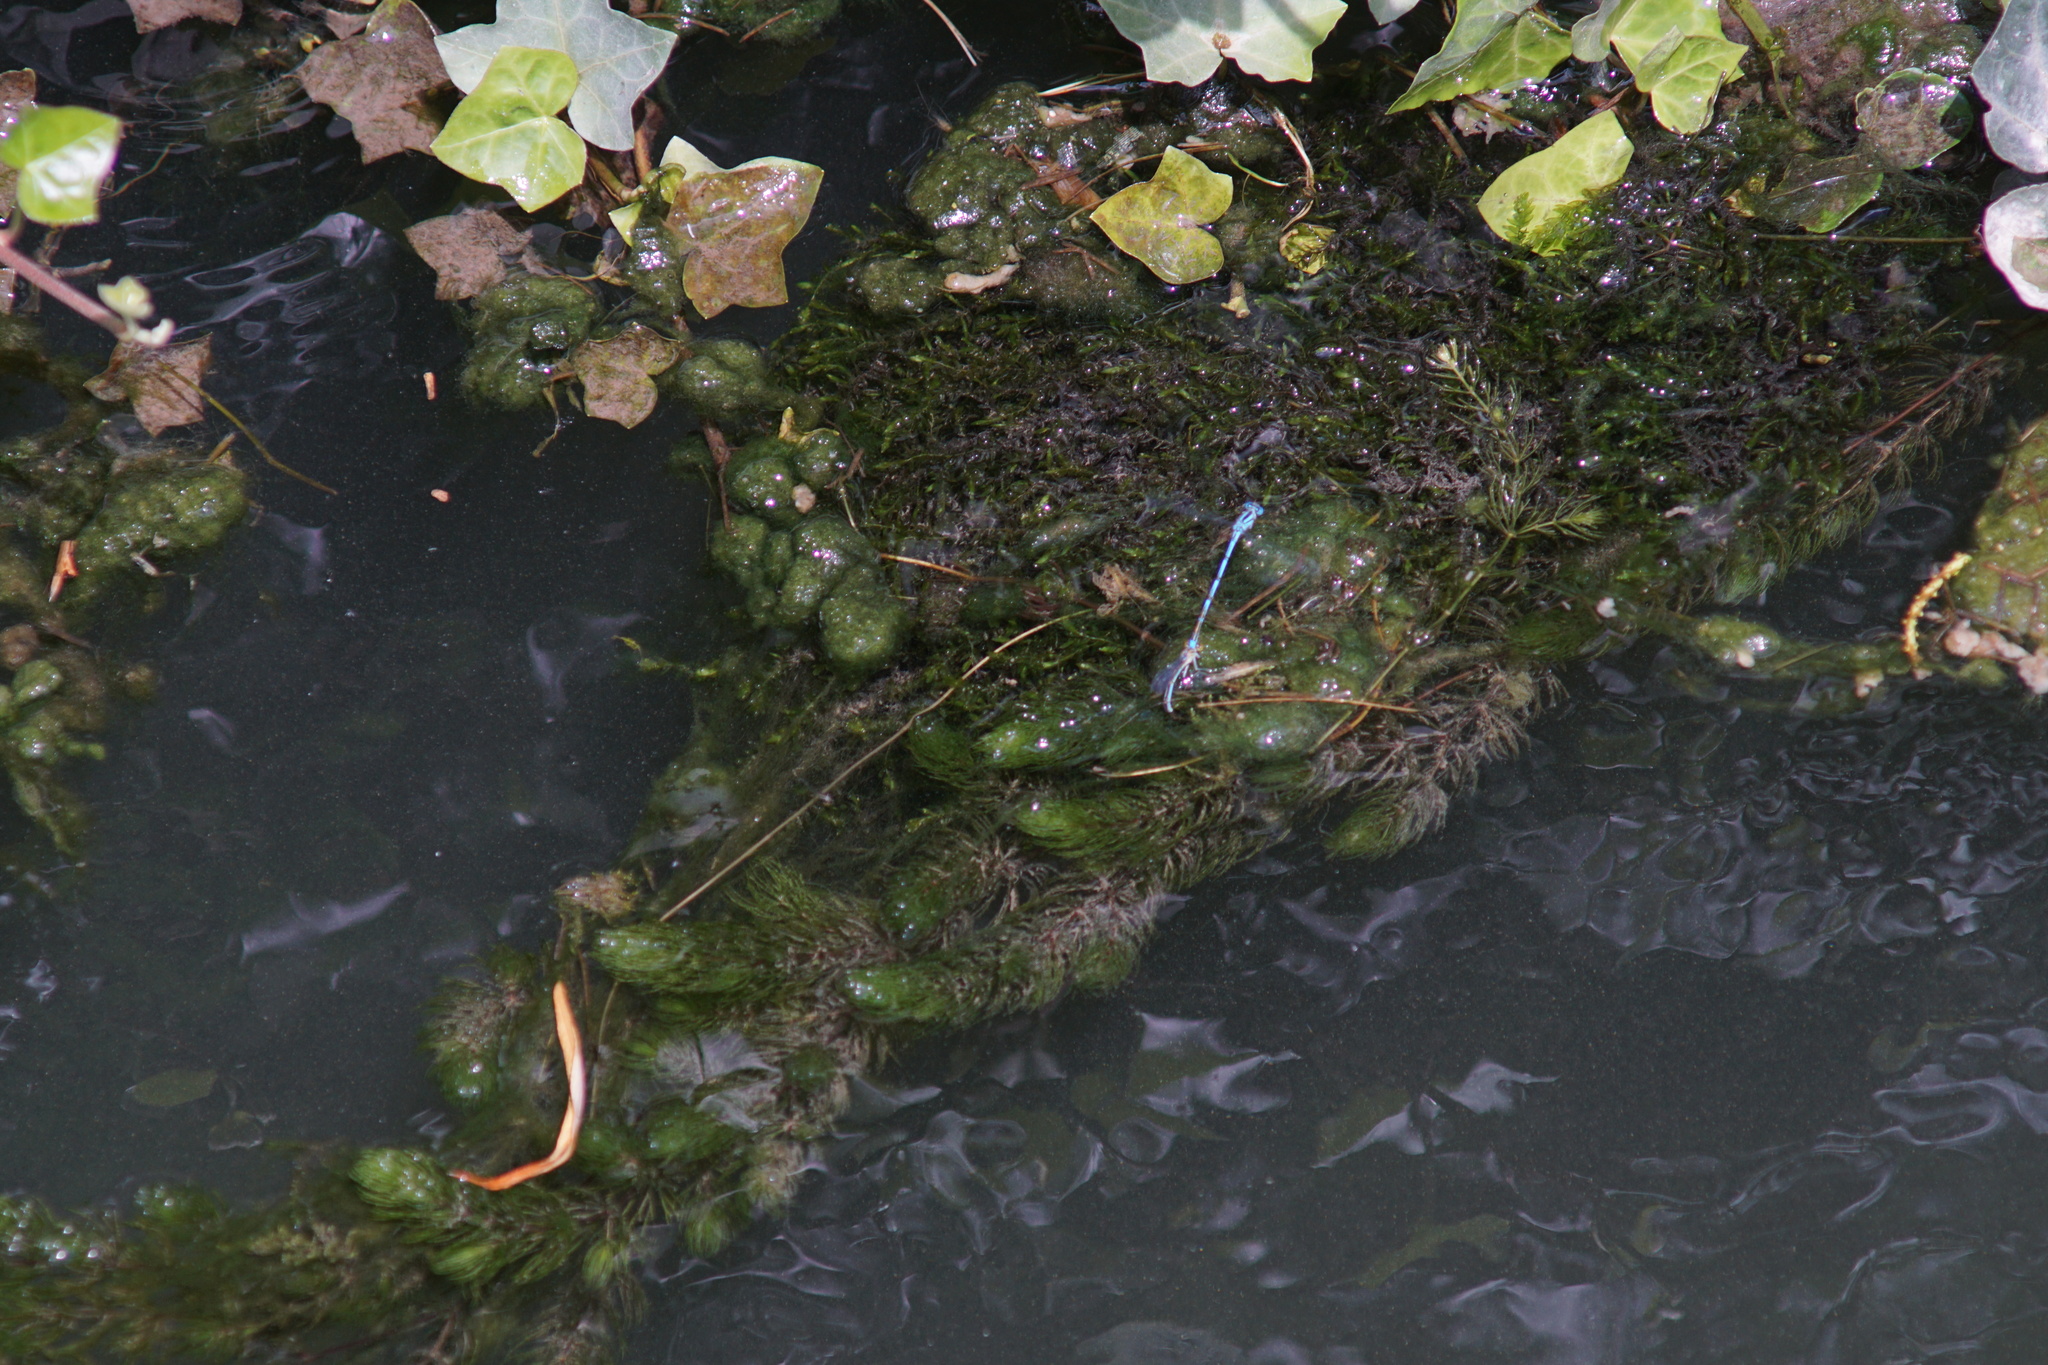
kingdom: Animalia
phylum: Arthropoda
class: Insecta
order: Odonata
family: Coenagrionidae
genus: Erythromma
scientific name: Erythromma lindenii
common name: Blue-eye
